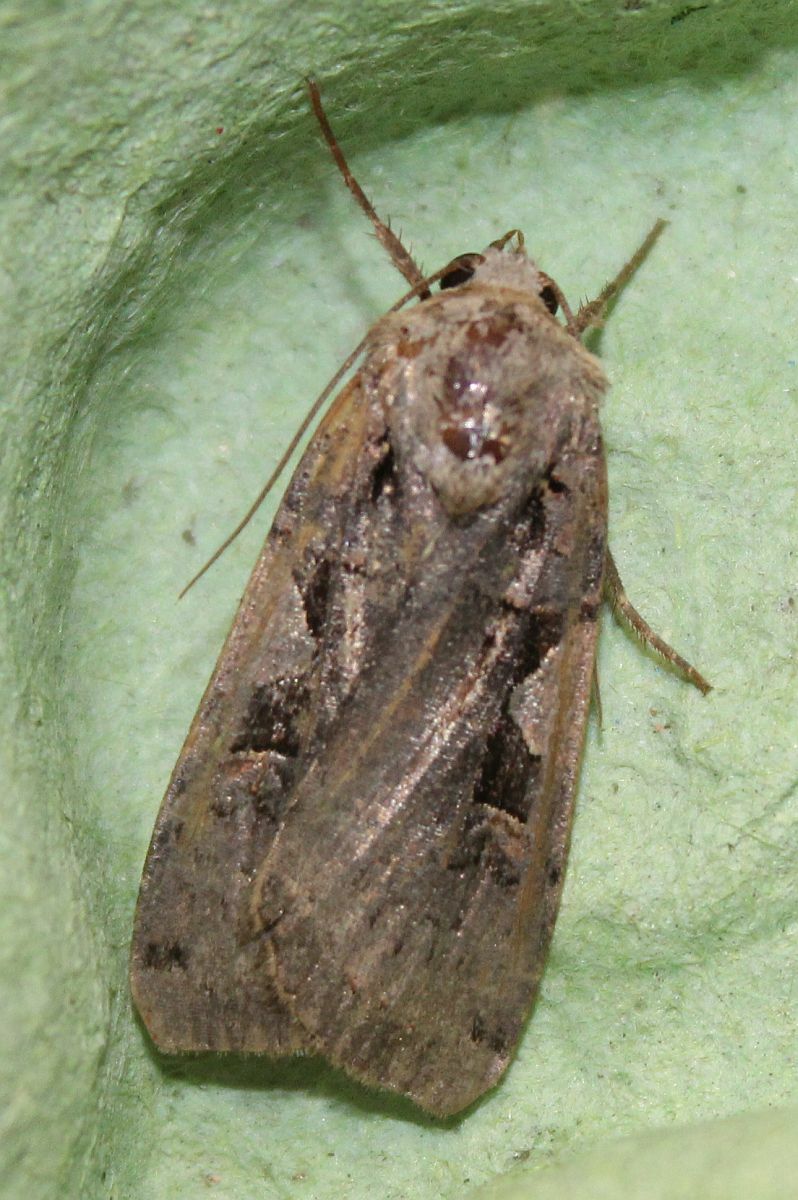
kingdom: Animalia
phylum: Arthropoda
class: Insecta
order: Lepidoptera
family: Noctuidae
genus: Xestia
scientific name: Xestia c-nigrum
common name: Setaceous hebrew character
